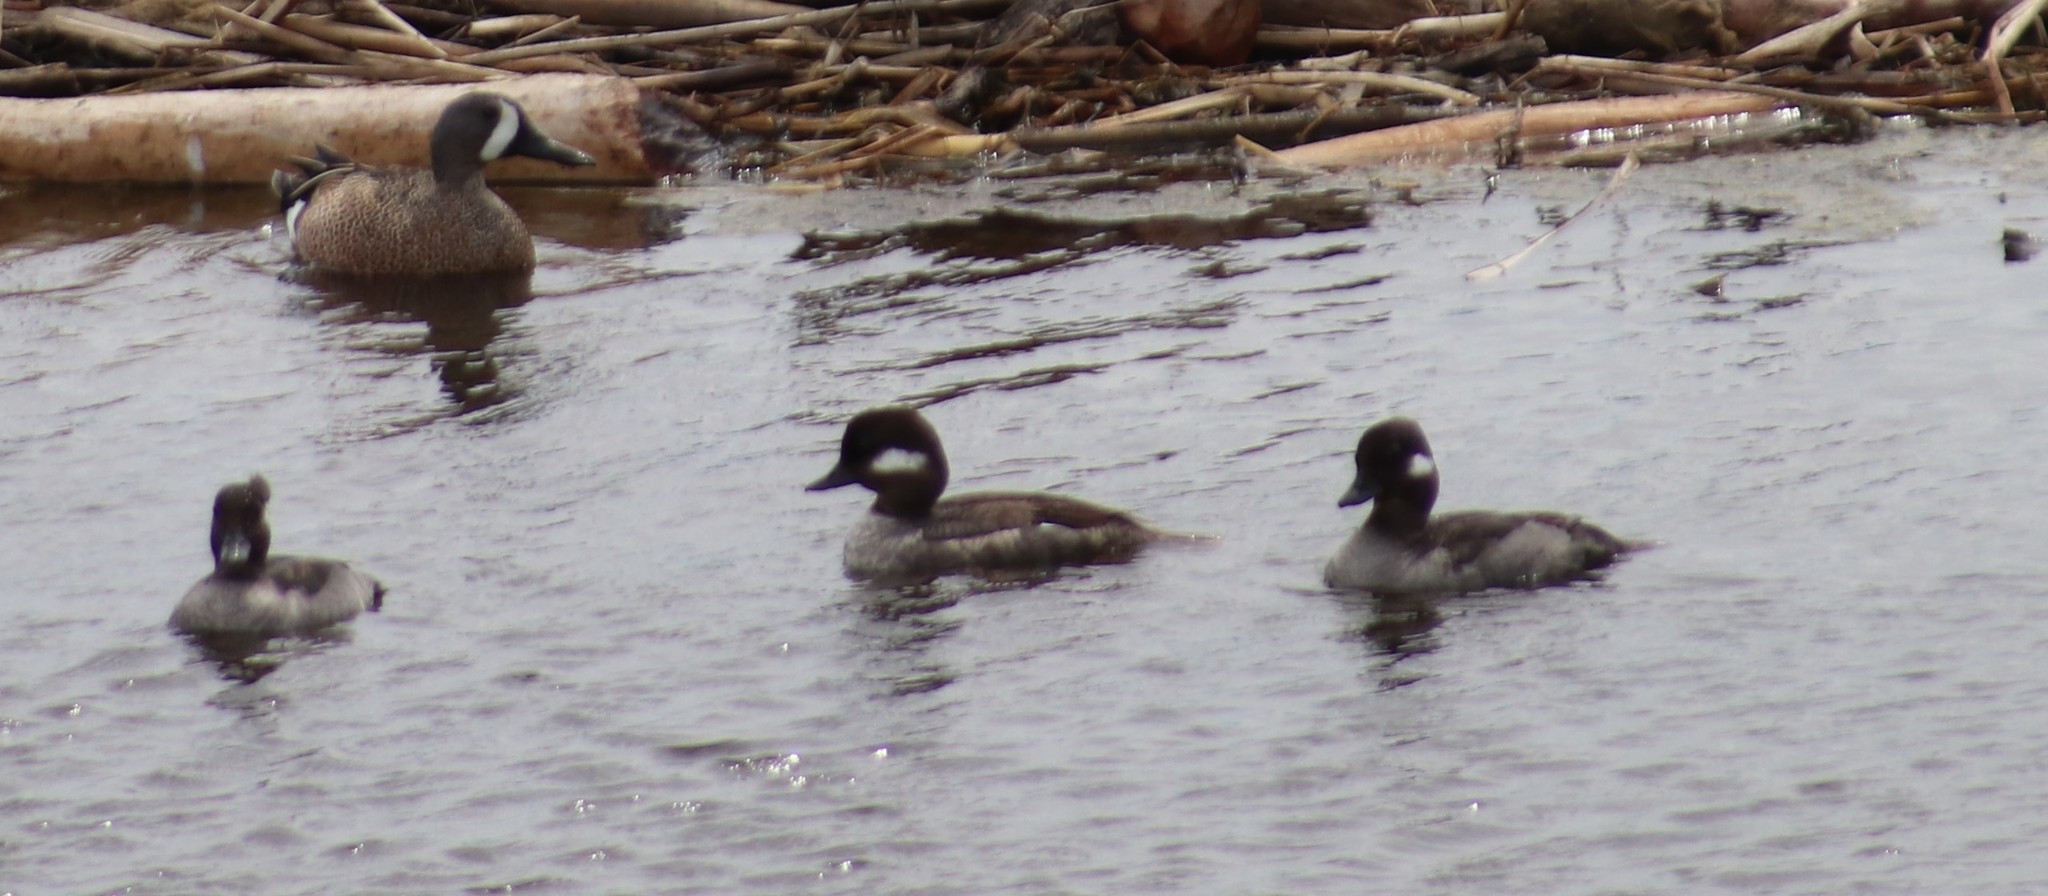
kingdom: Animalia
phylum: Chordata
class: Aves
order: Anseriformes
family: Anatidae
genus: Spatula
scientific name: Spatula discors
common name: Blue-winged teal
